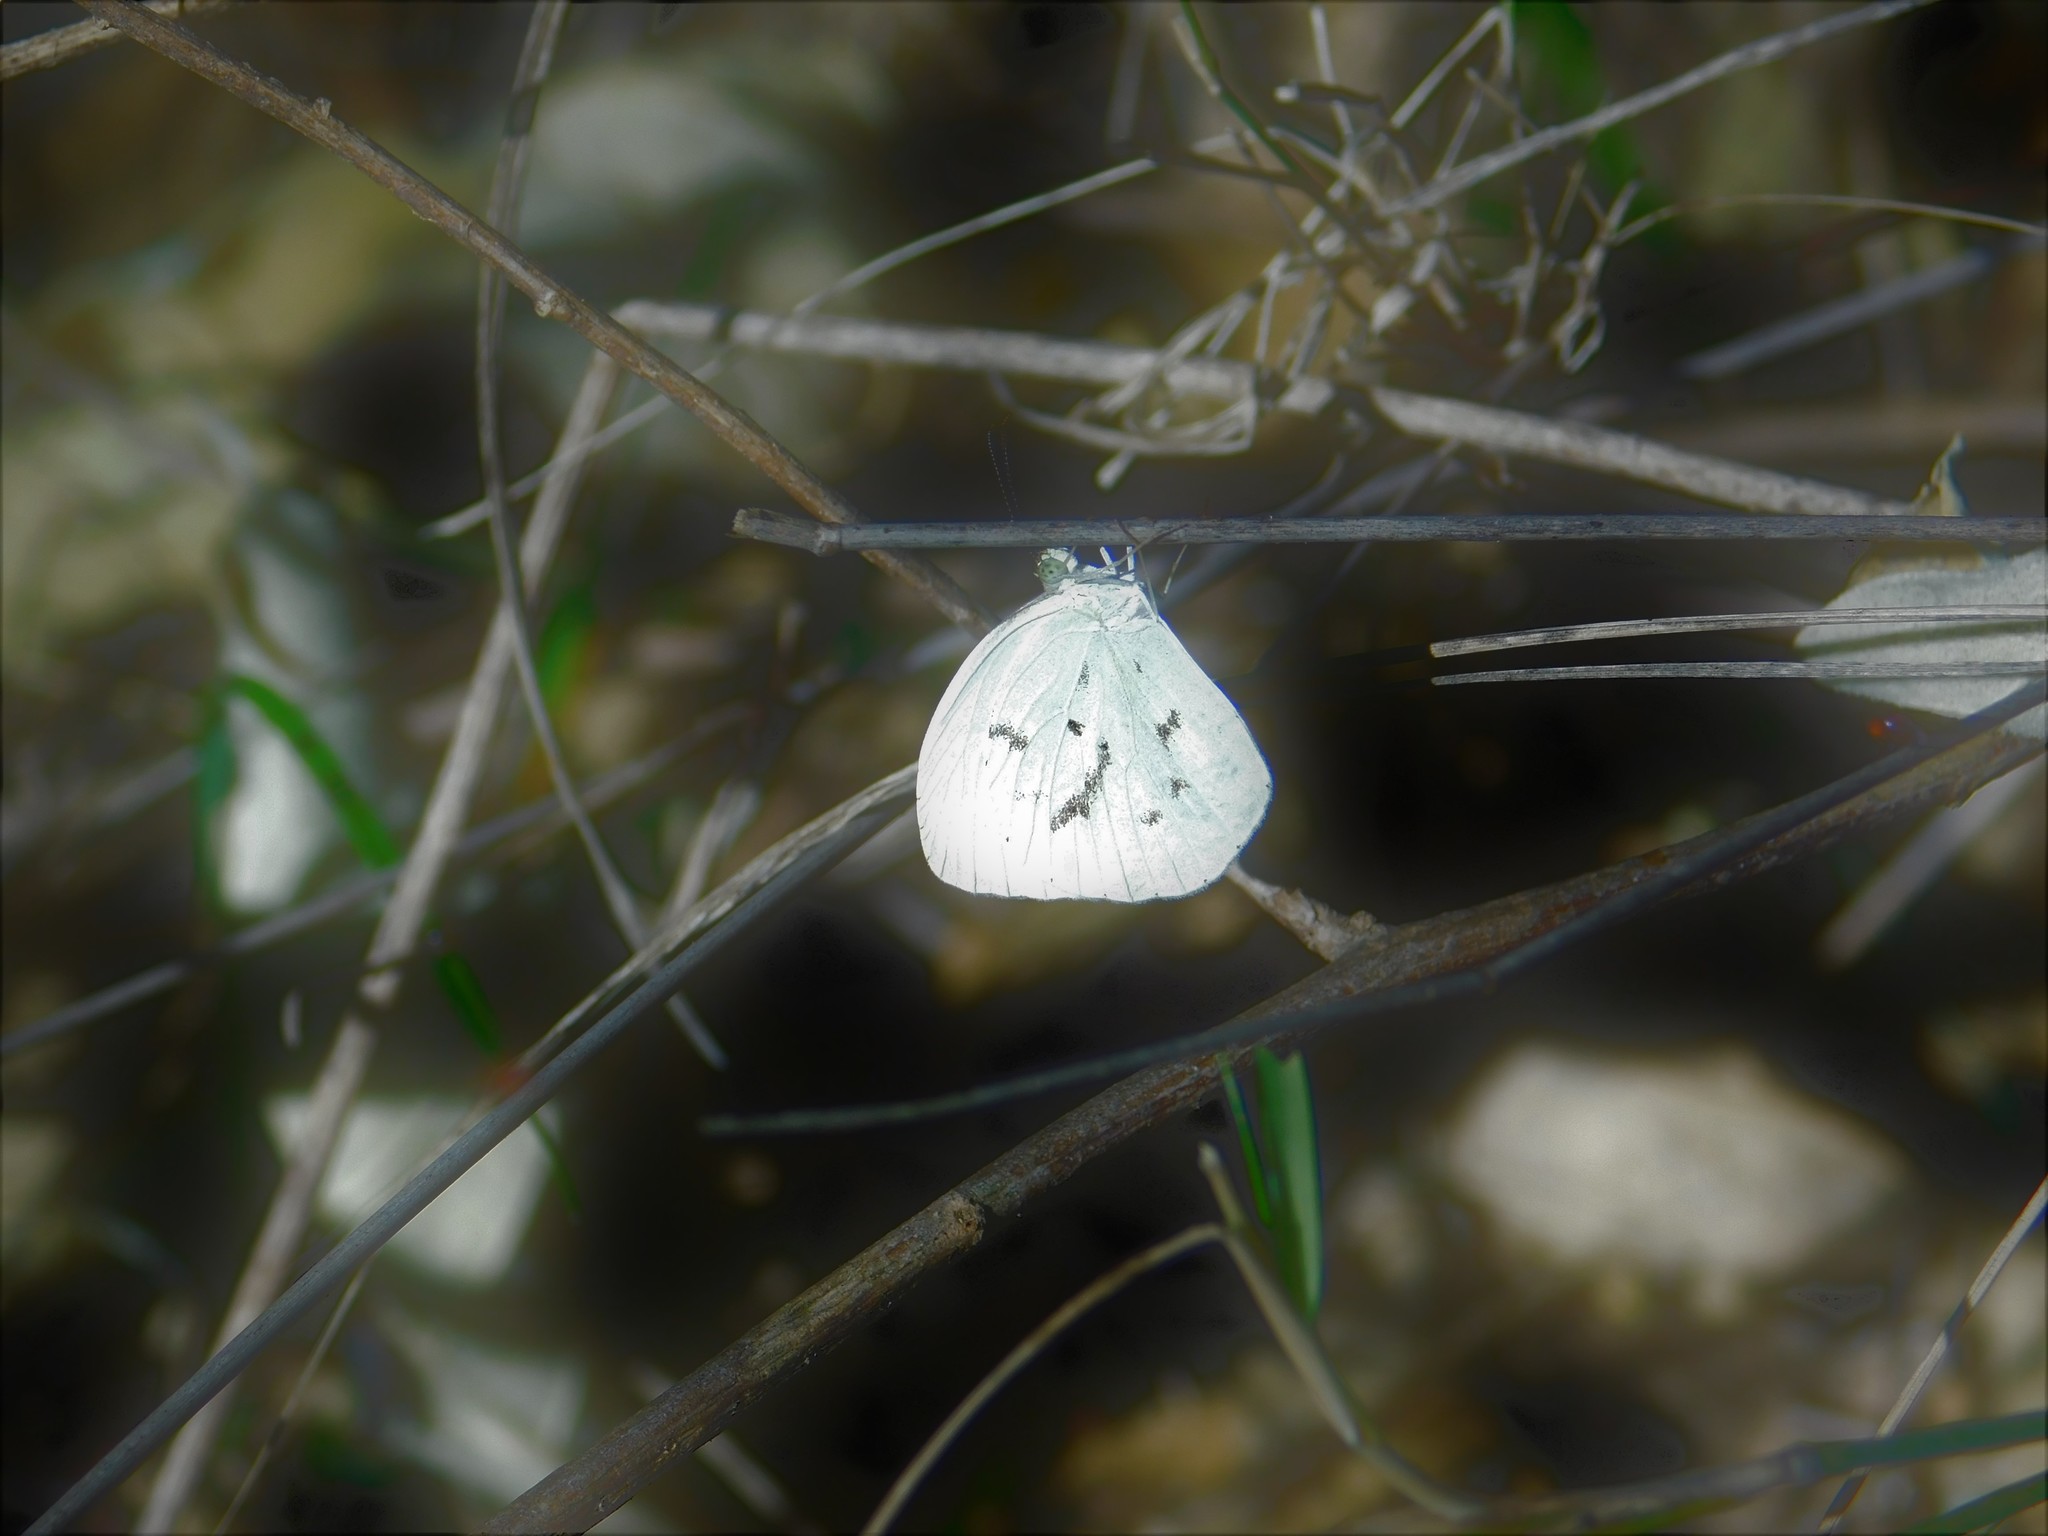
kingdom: Animalia
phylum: Arthropoda
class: Insecta
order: Lepidoptera
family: Pieridae
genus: Abaeis
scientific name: Abaeis albula
